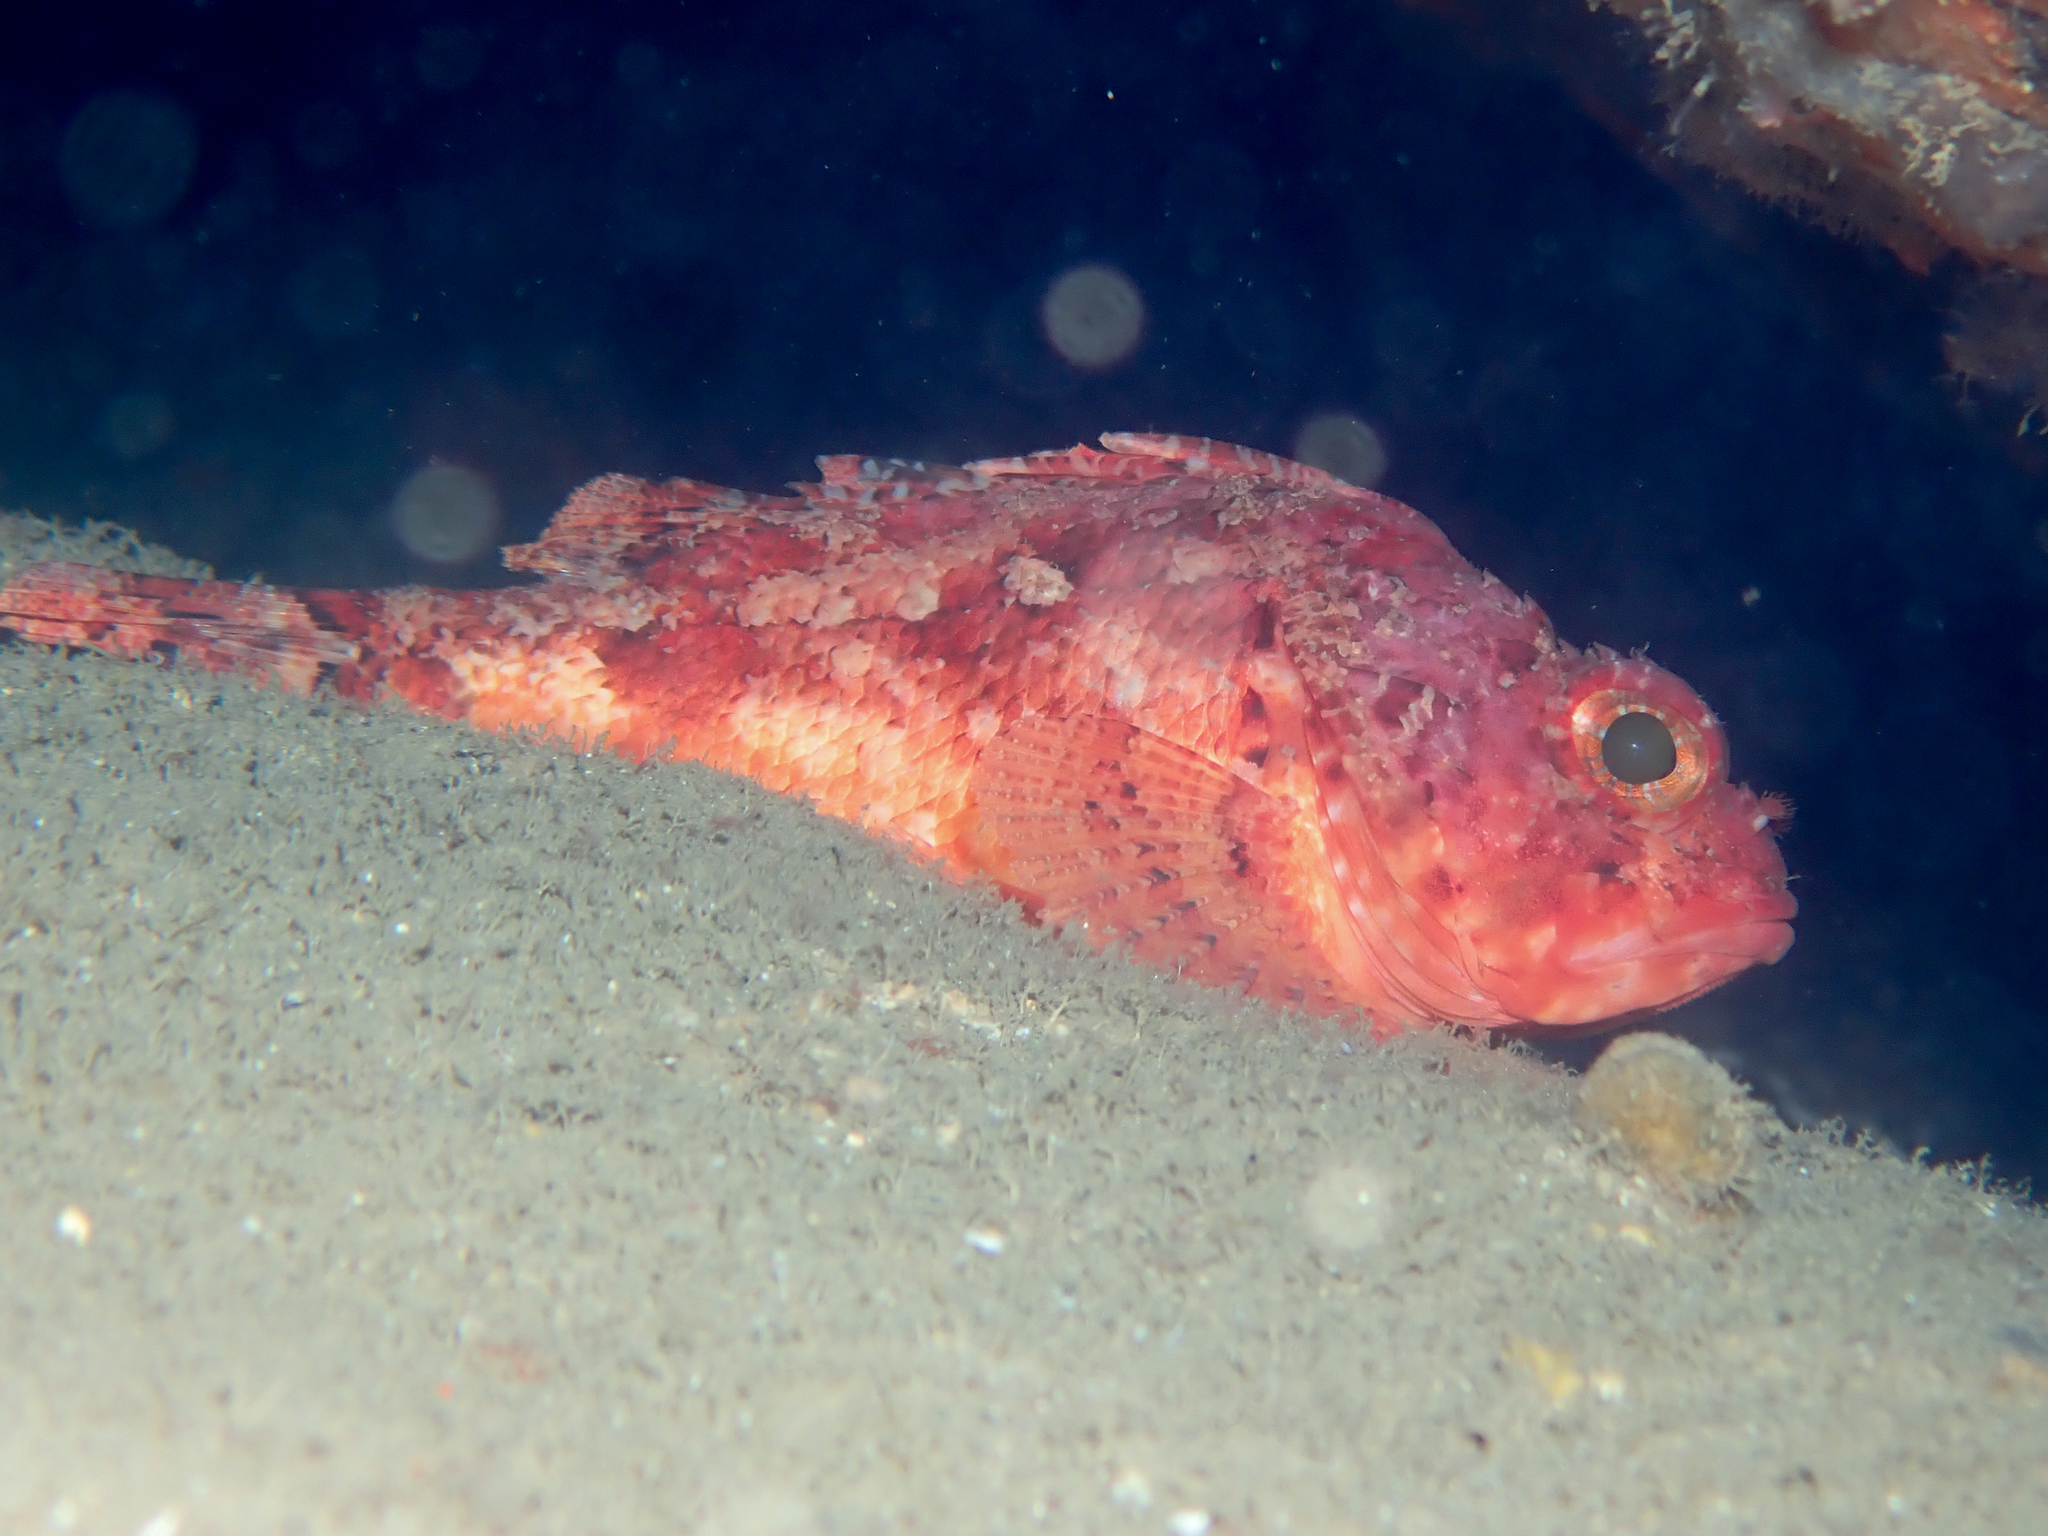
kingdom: Animalia
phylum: Chordata
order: Scorpaeniformes
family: Scorpaenidae
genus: Scorpaena
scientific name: Scorpaena notata
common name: Small red scorpionfish
